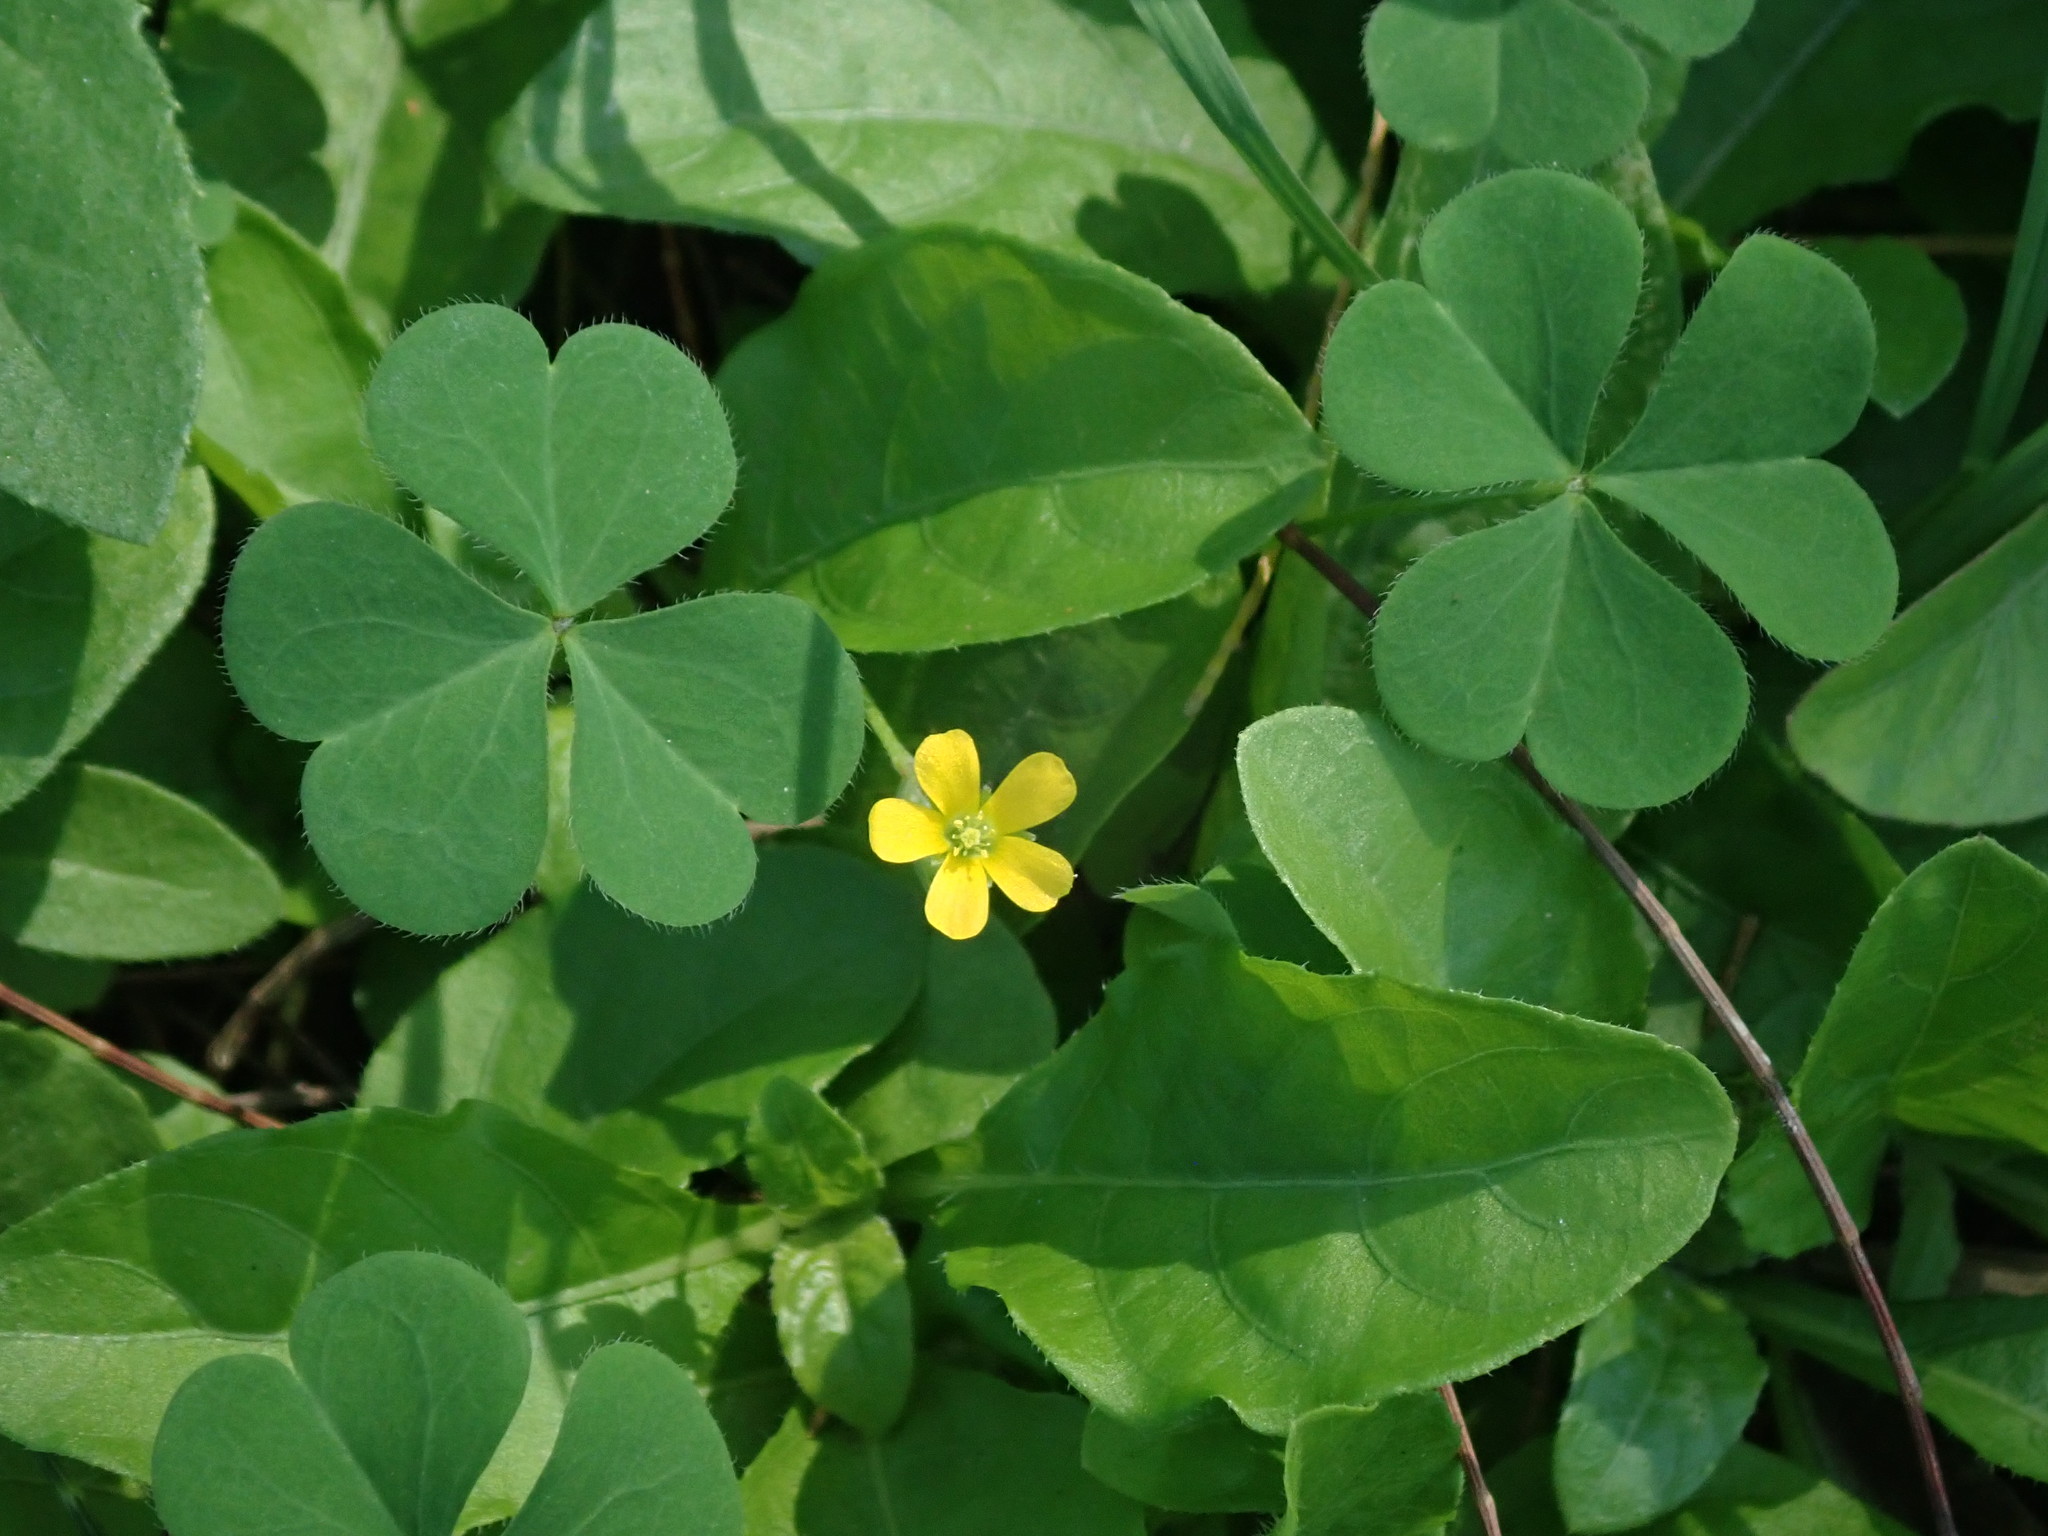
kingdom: Plantae
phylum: Tracheophyta
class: Magnoliopsida
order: Oxalidales
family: Oxalidaceae
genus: Oxalis
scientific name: Oxalis corniculata
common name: Procumbent yellow-sorrel
